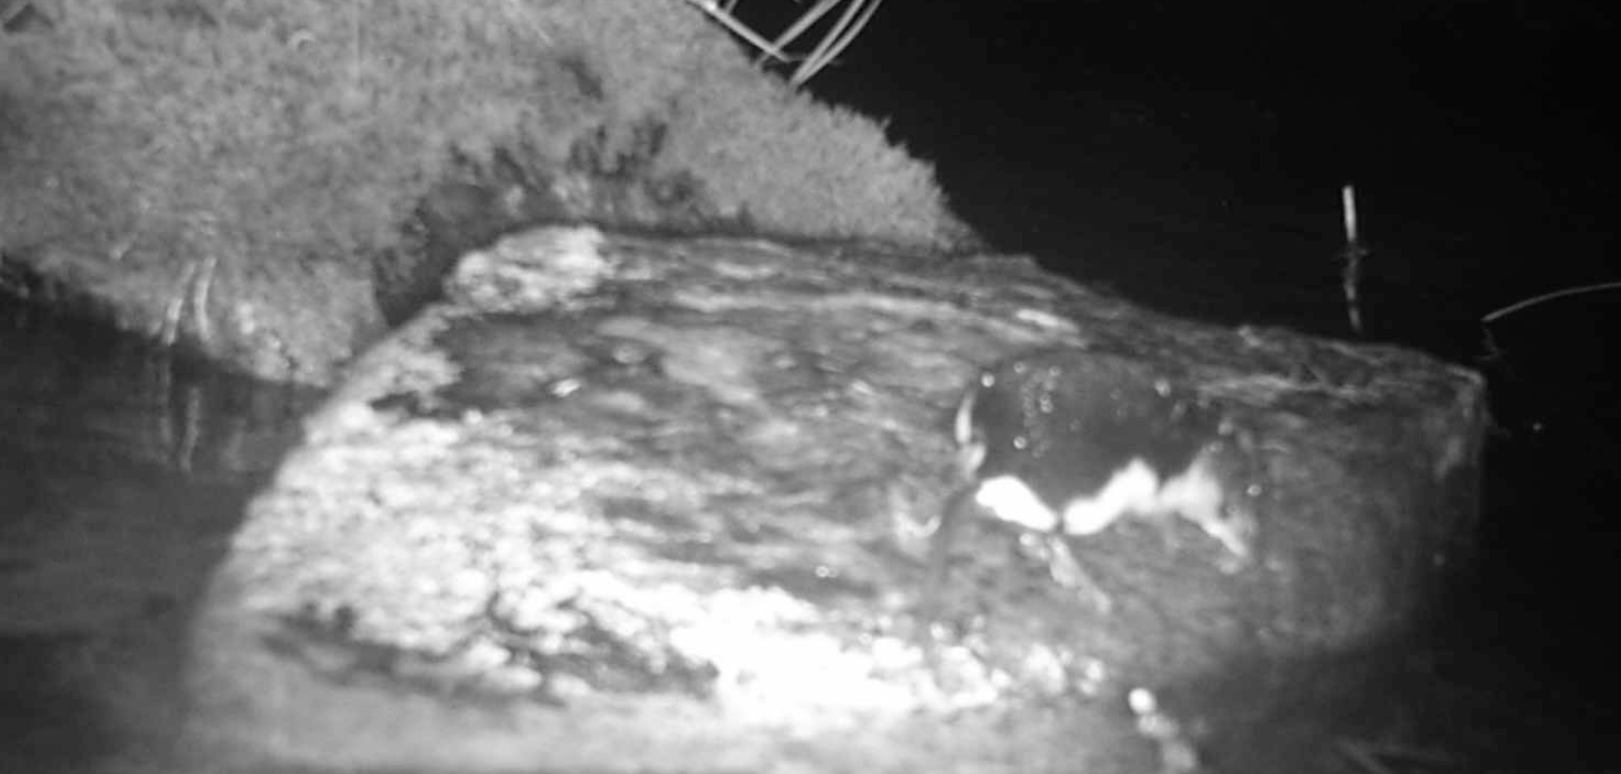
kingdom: Animalia
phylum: Chordata
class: Mammalia
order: Soricomorpha
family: Soricidae
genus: Neomys
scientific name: Neomys fodiens
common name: Eurasian water shrew
